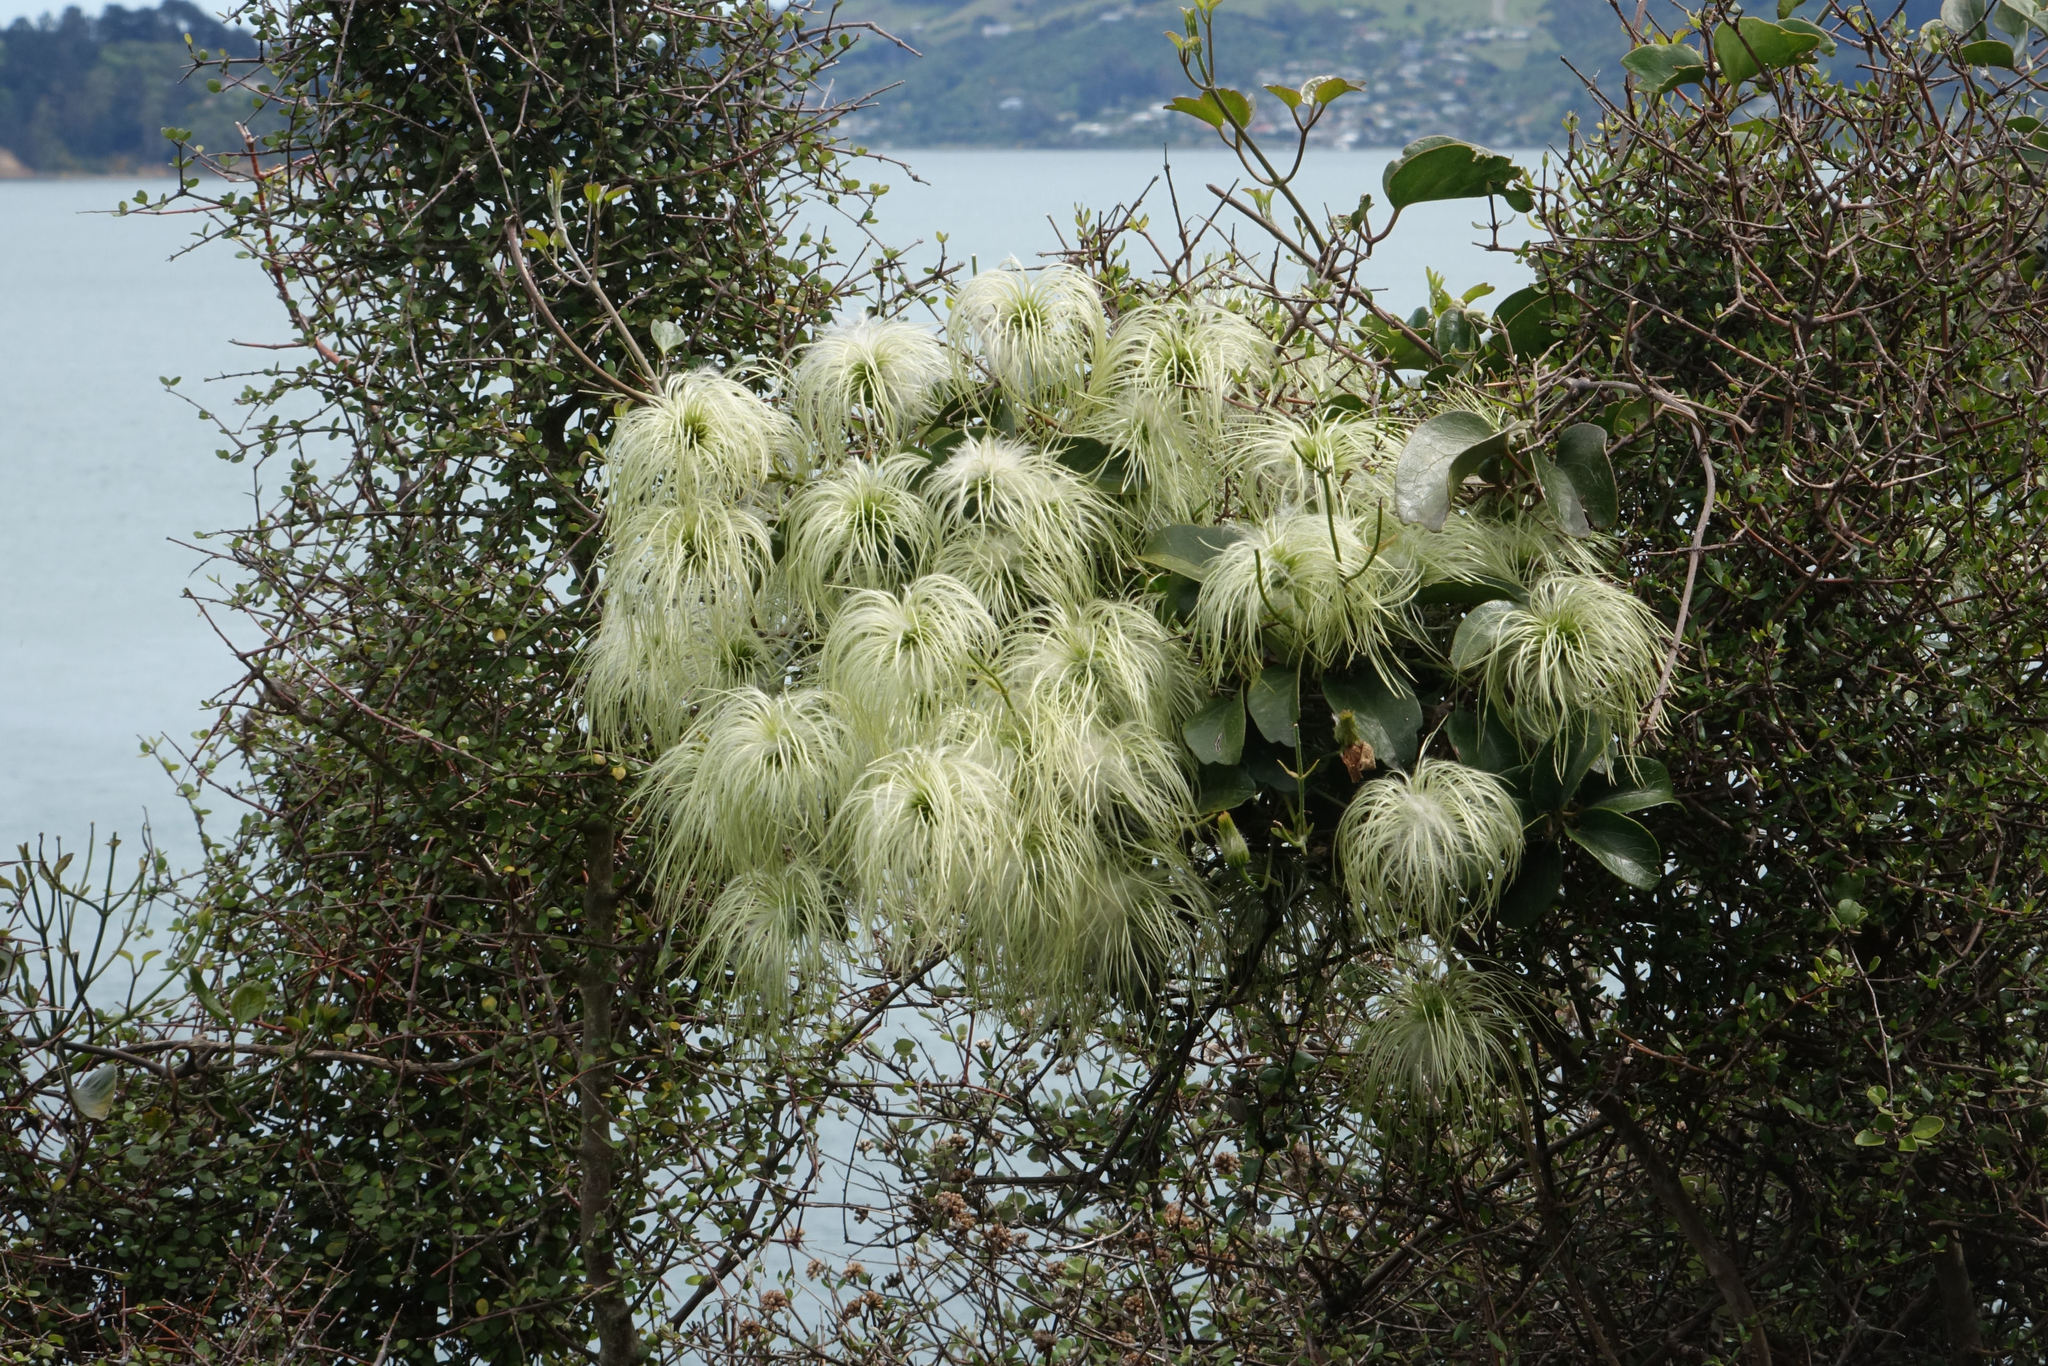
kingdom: Plantae
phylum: Tracheophyta
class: Magnoliopsida
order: Ranunculales
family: Ranunculaceae
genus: Clematis
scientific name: Clematis paniculata
